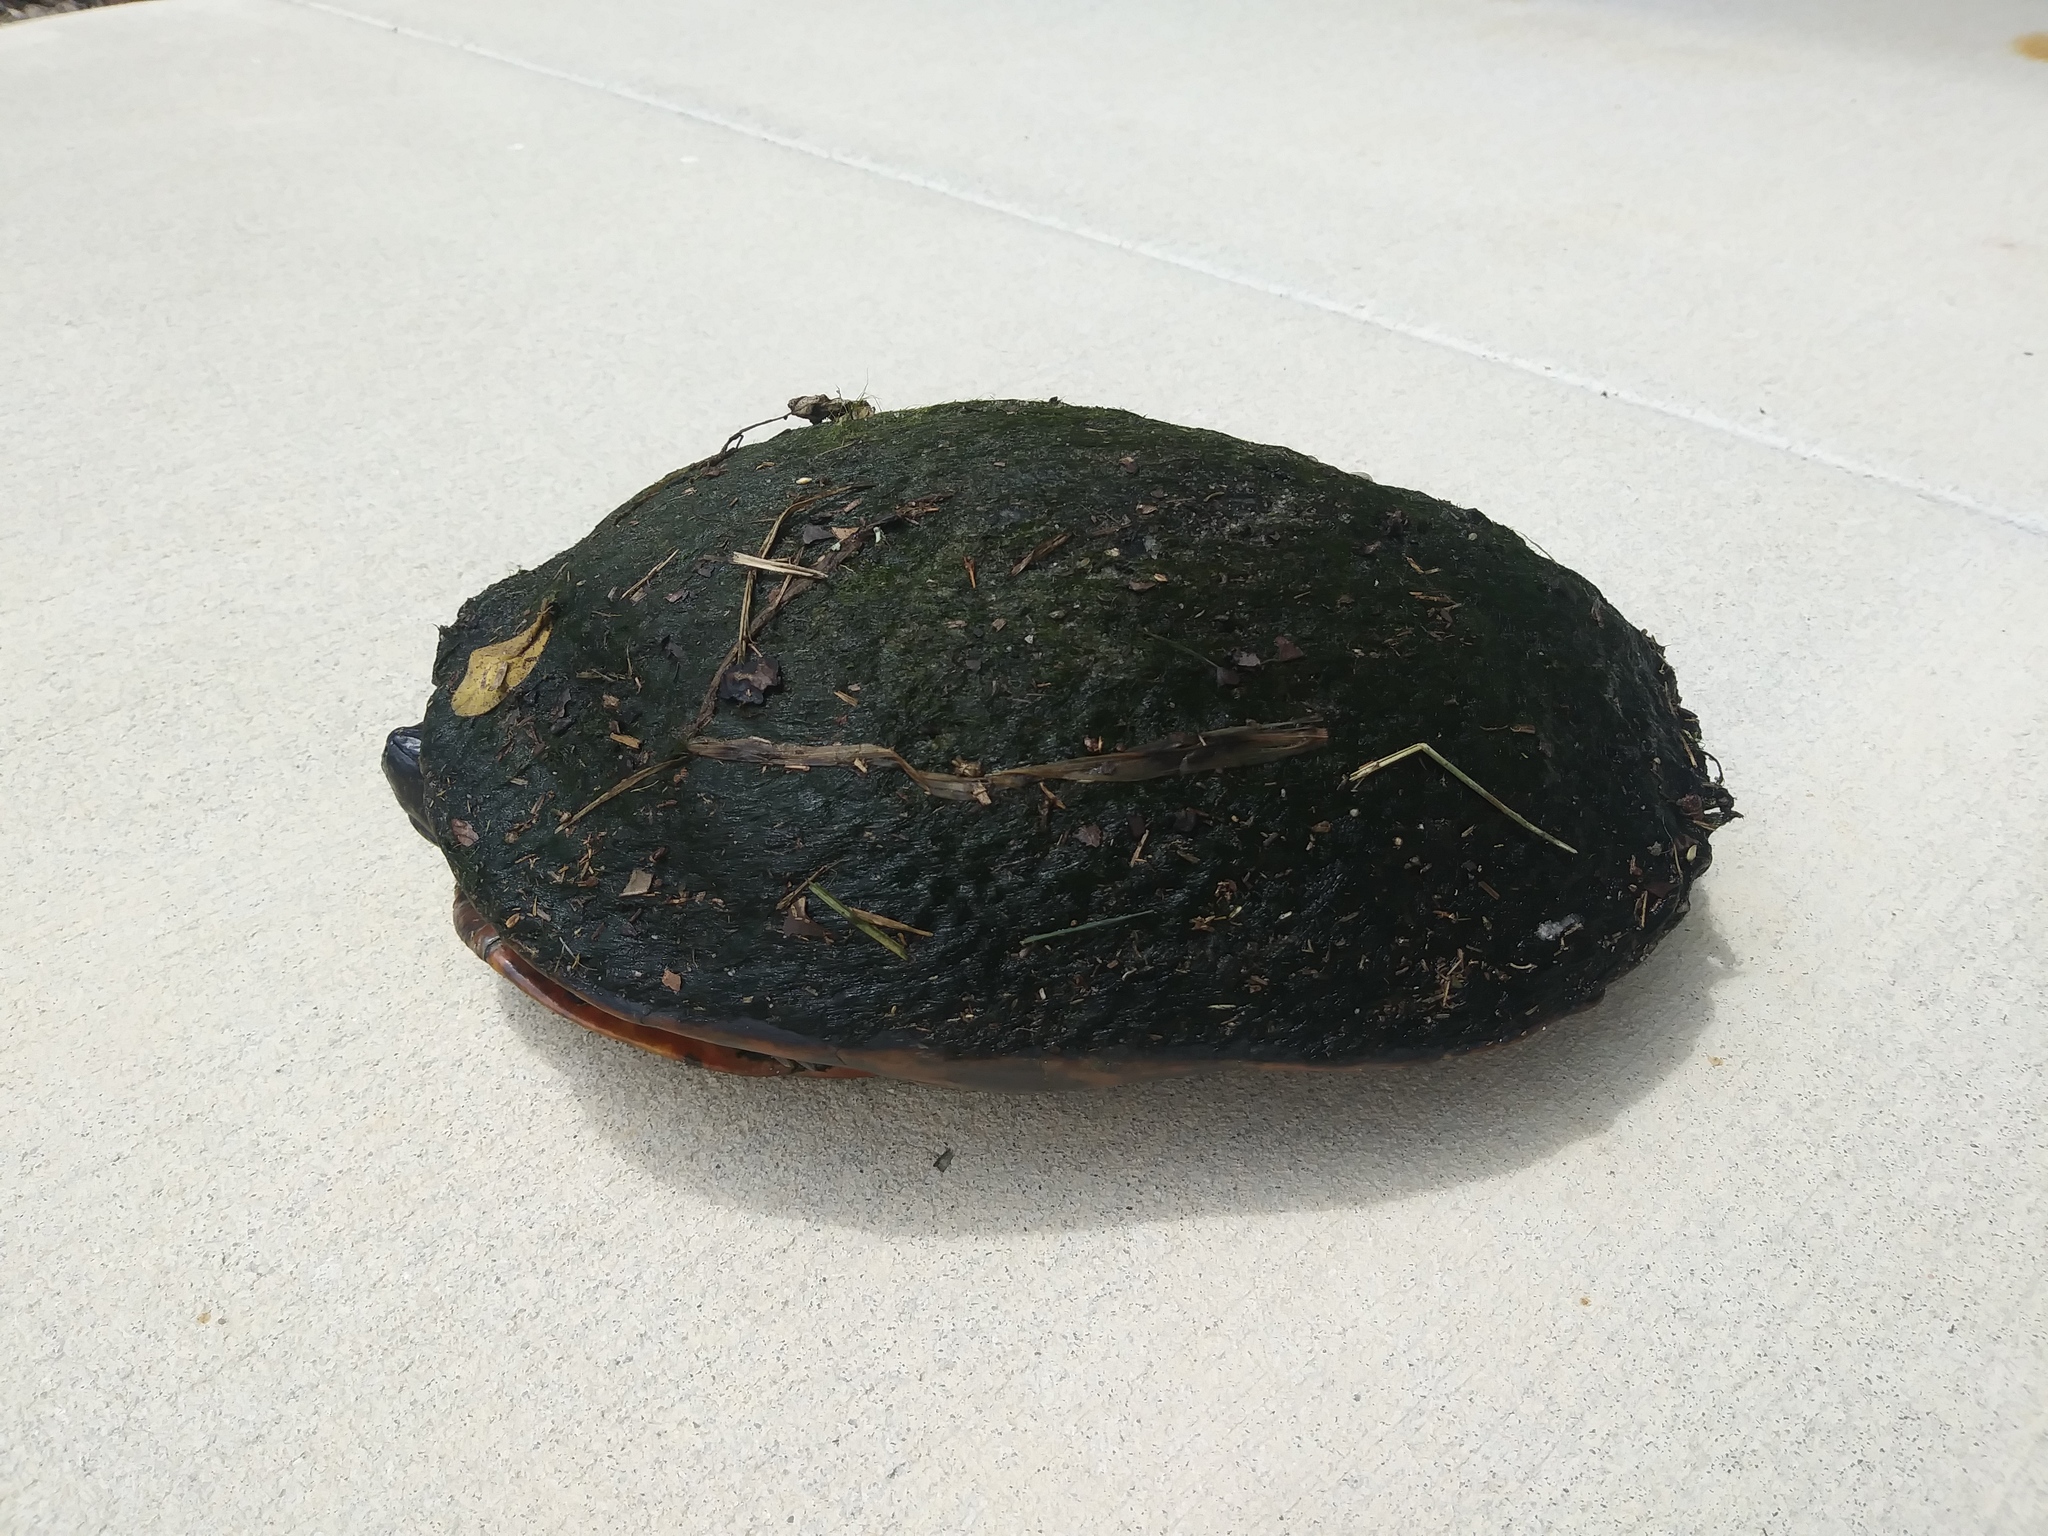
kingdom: Animalia
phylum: Chordata
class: Testudines
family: Emydidae
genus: Pseudemys
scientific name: Pseudemys nelsoni
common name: Florida red-bellied turtle
